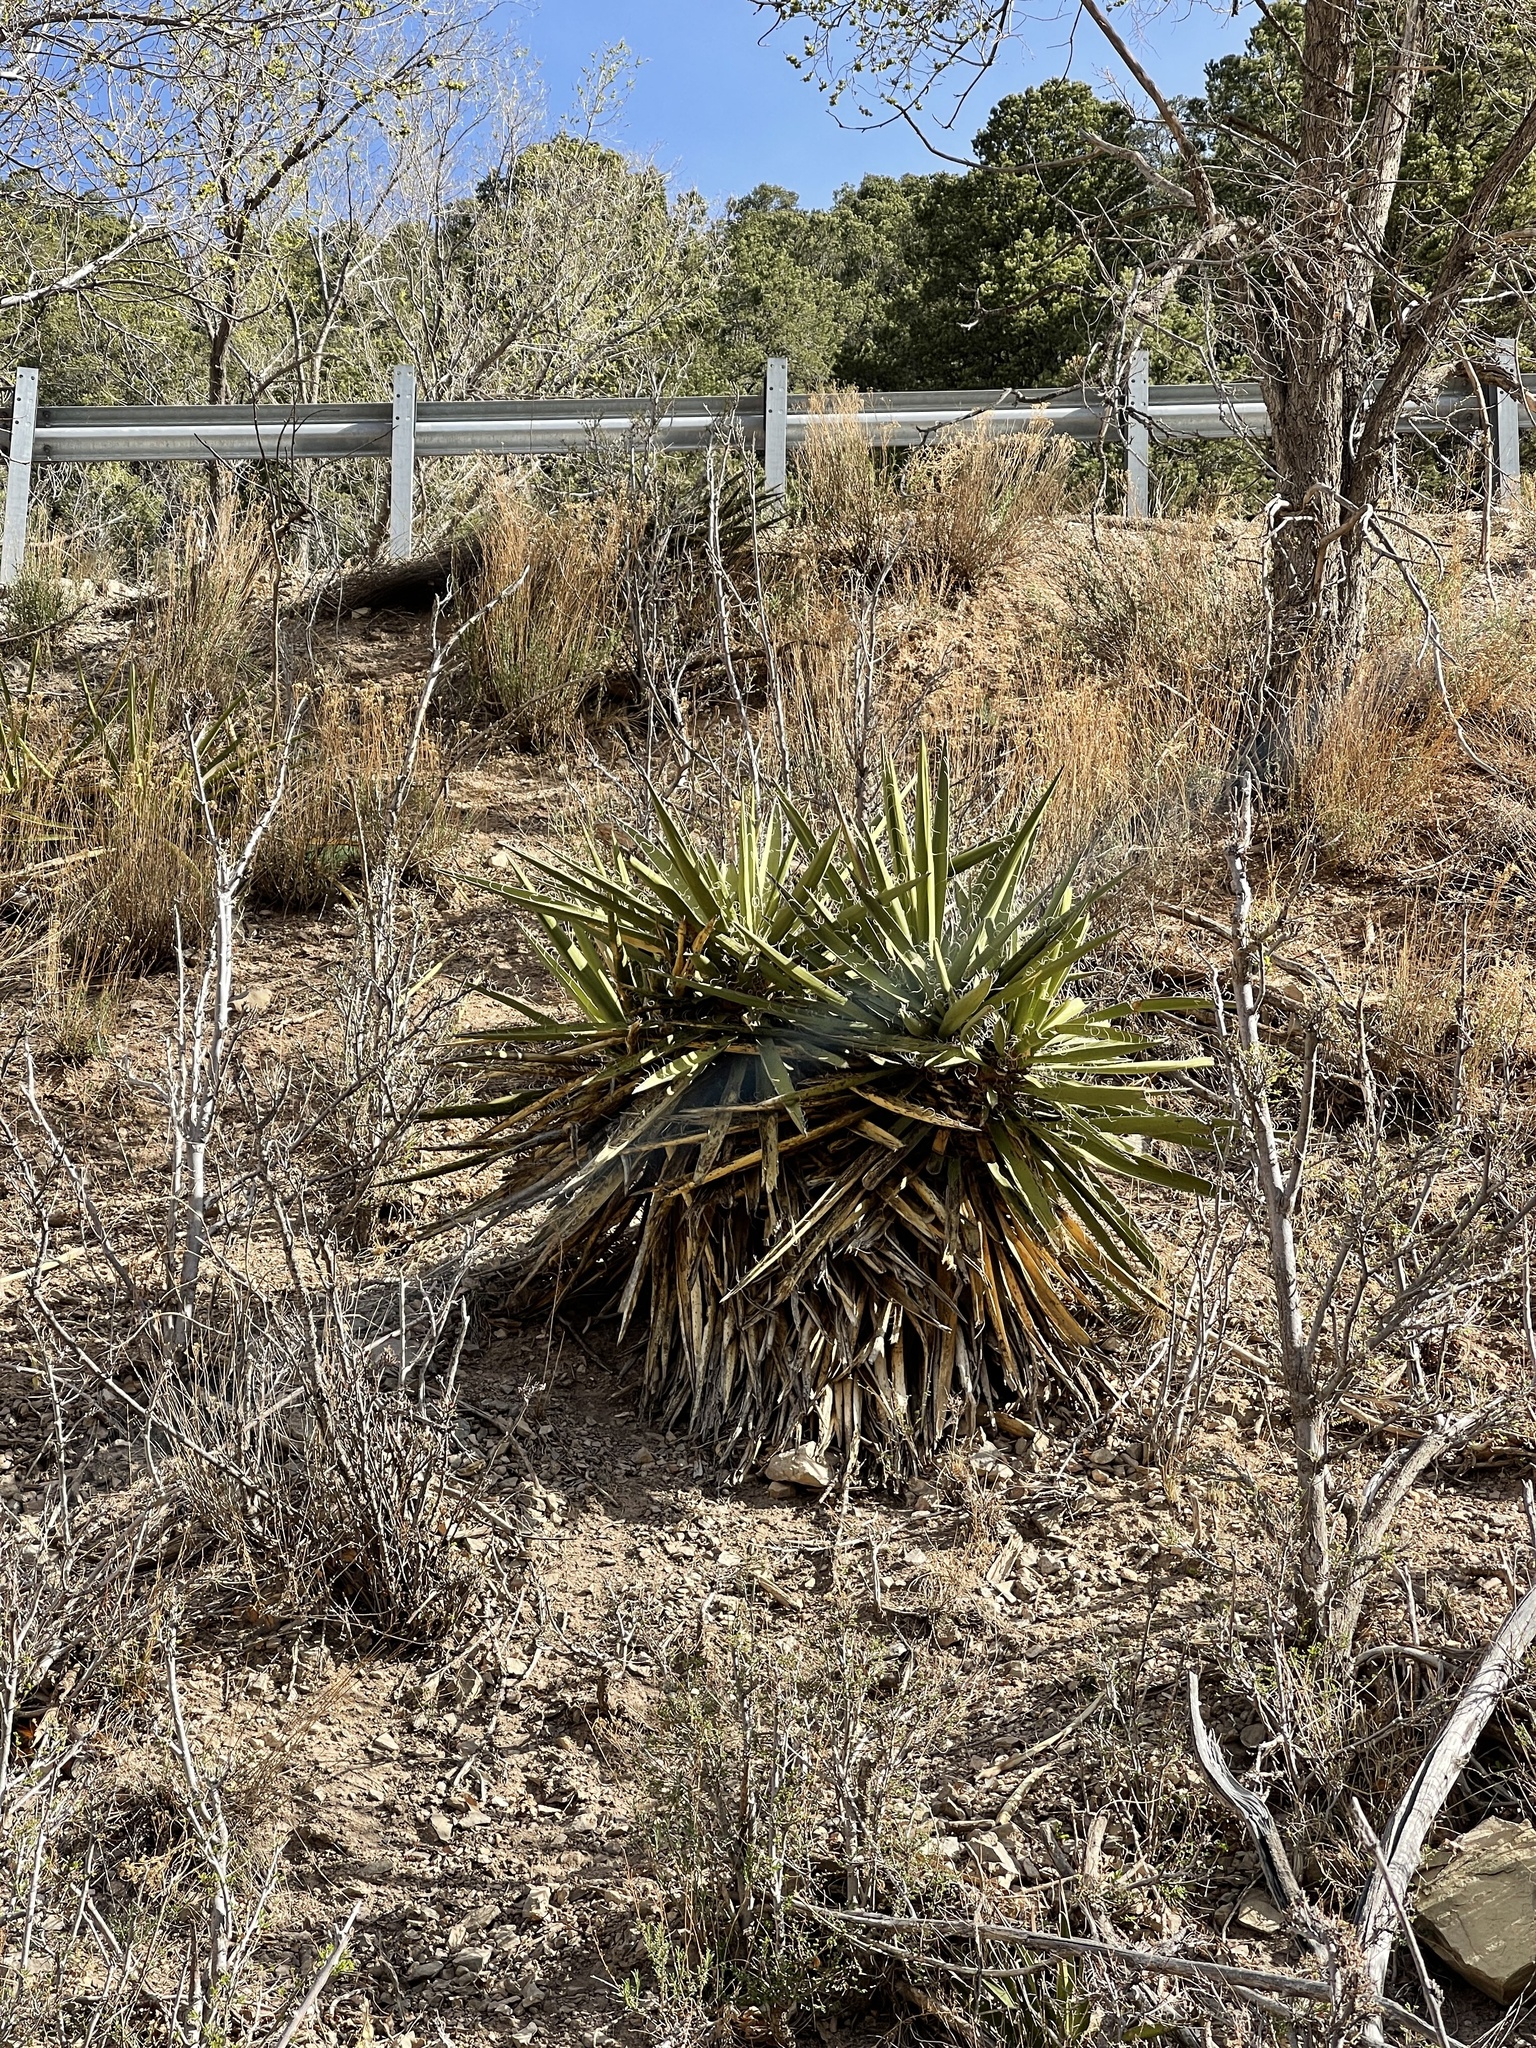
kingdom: Plantae
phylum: Tracheophyta
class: Liliopsida
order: Asparagales
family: Asparagaceae
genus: Yucca
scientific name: Yucca baccata
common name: Banana yucca
